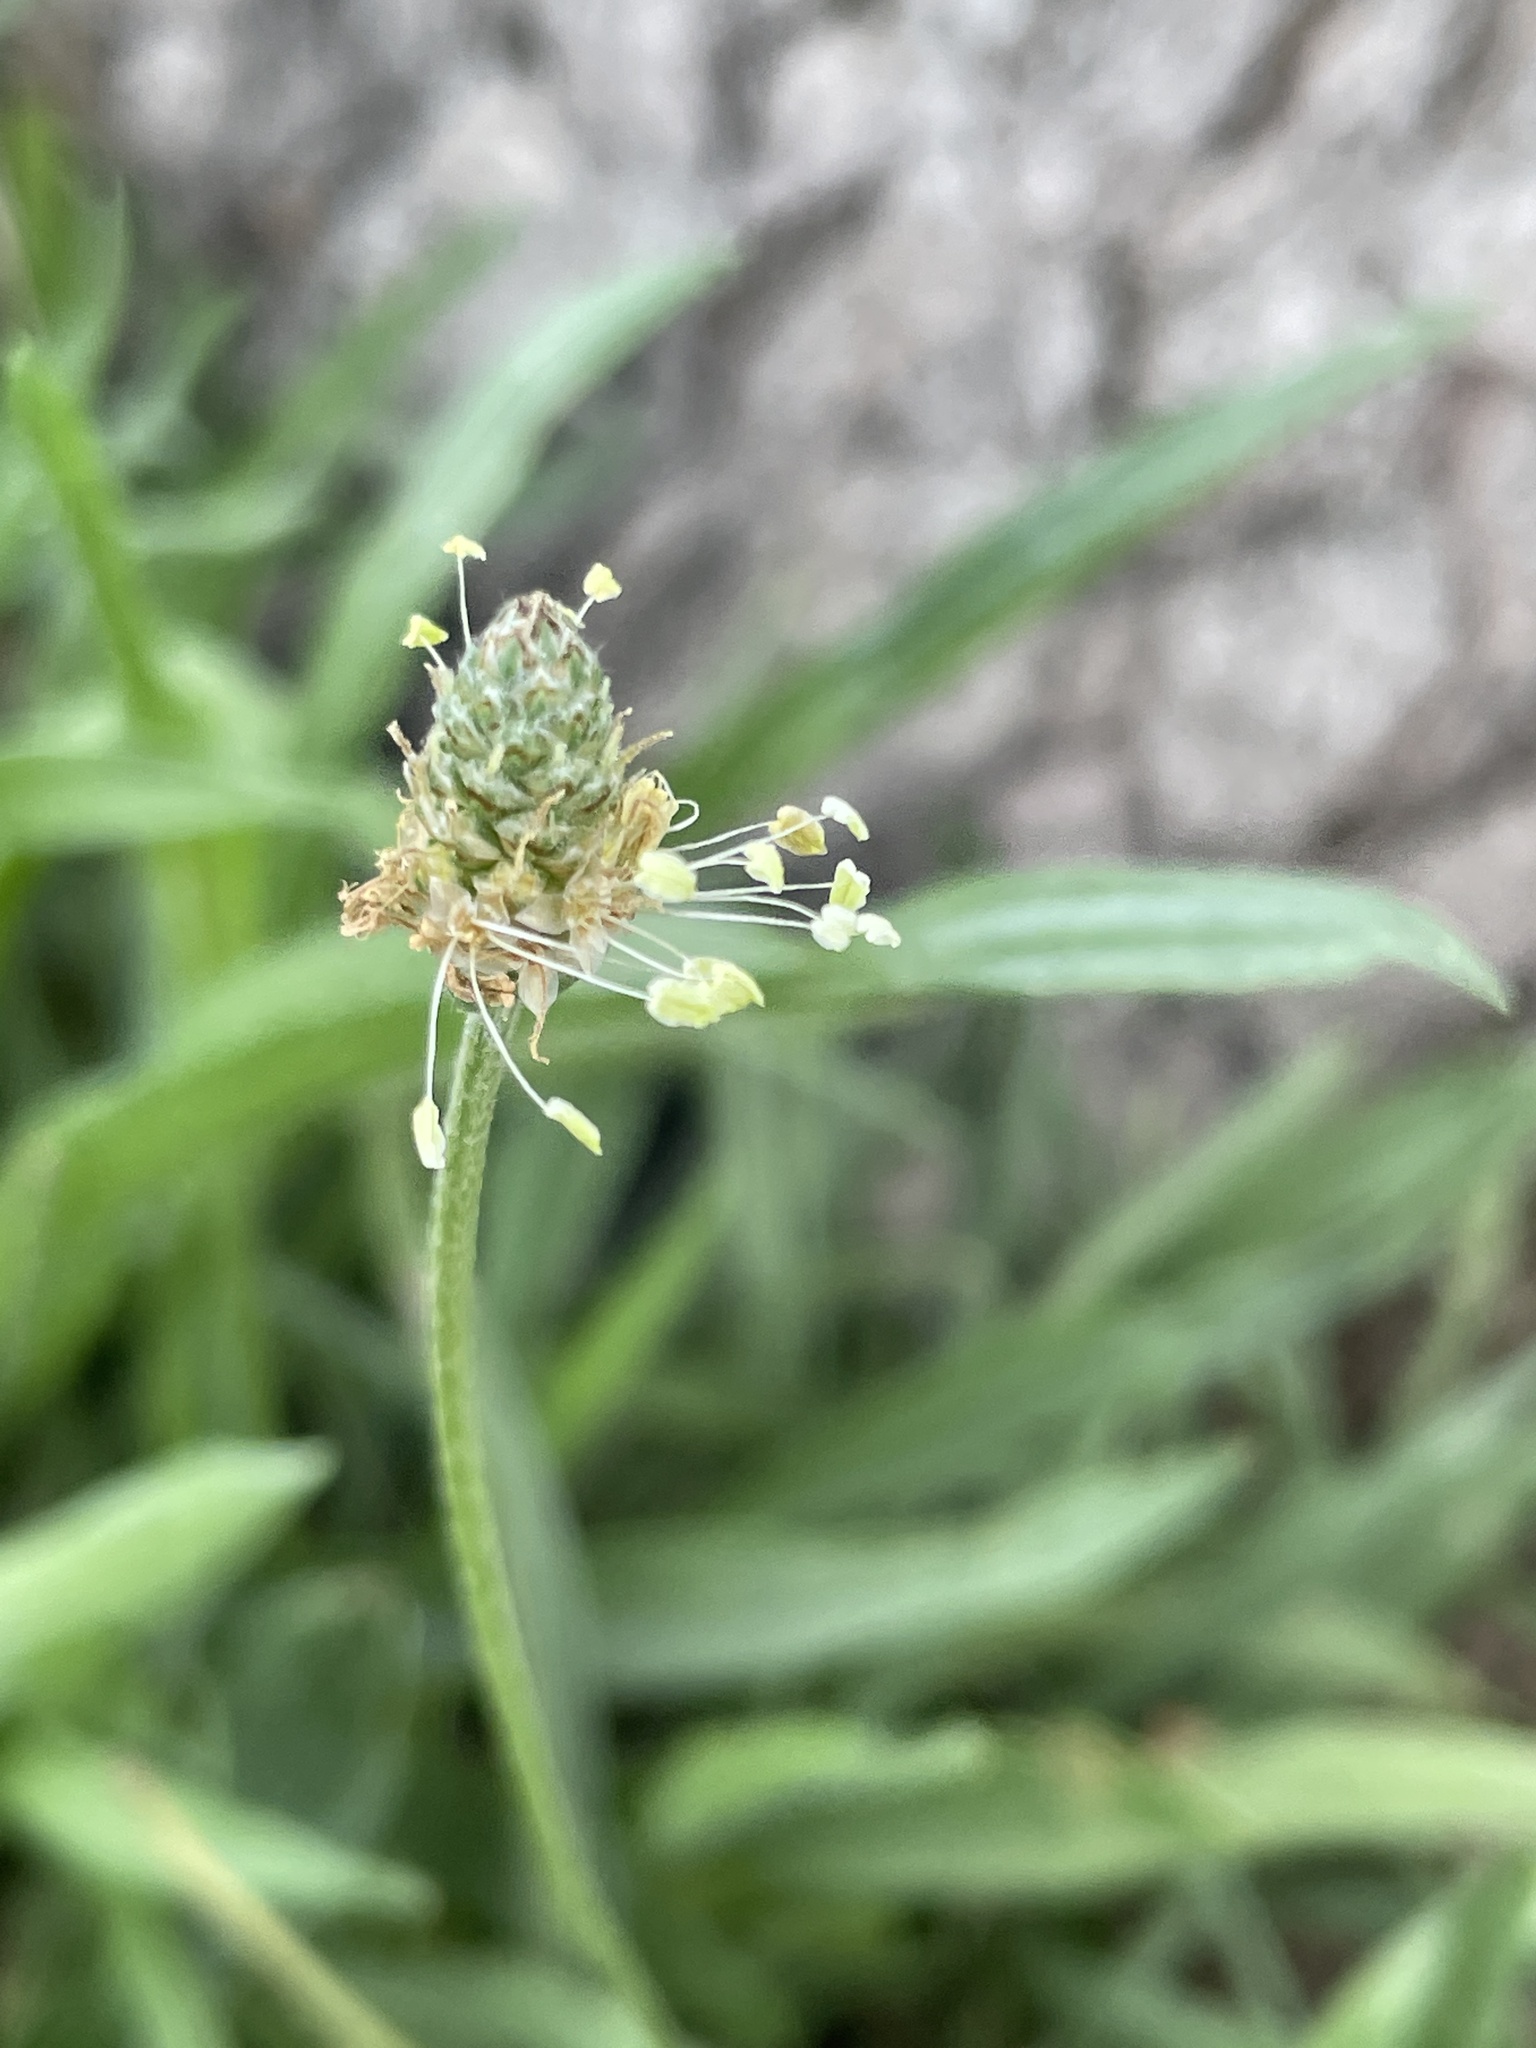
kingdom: Plantae
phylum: Tracheophyta
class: Magnoliopsida
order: Lamiales
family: Plantaginaceae
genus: Plantago
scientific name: Plantago lanceolata
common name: Ribwort plantain
